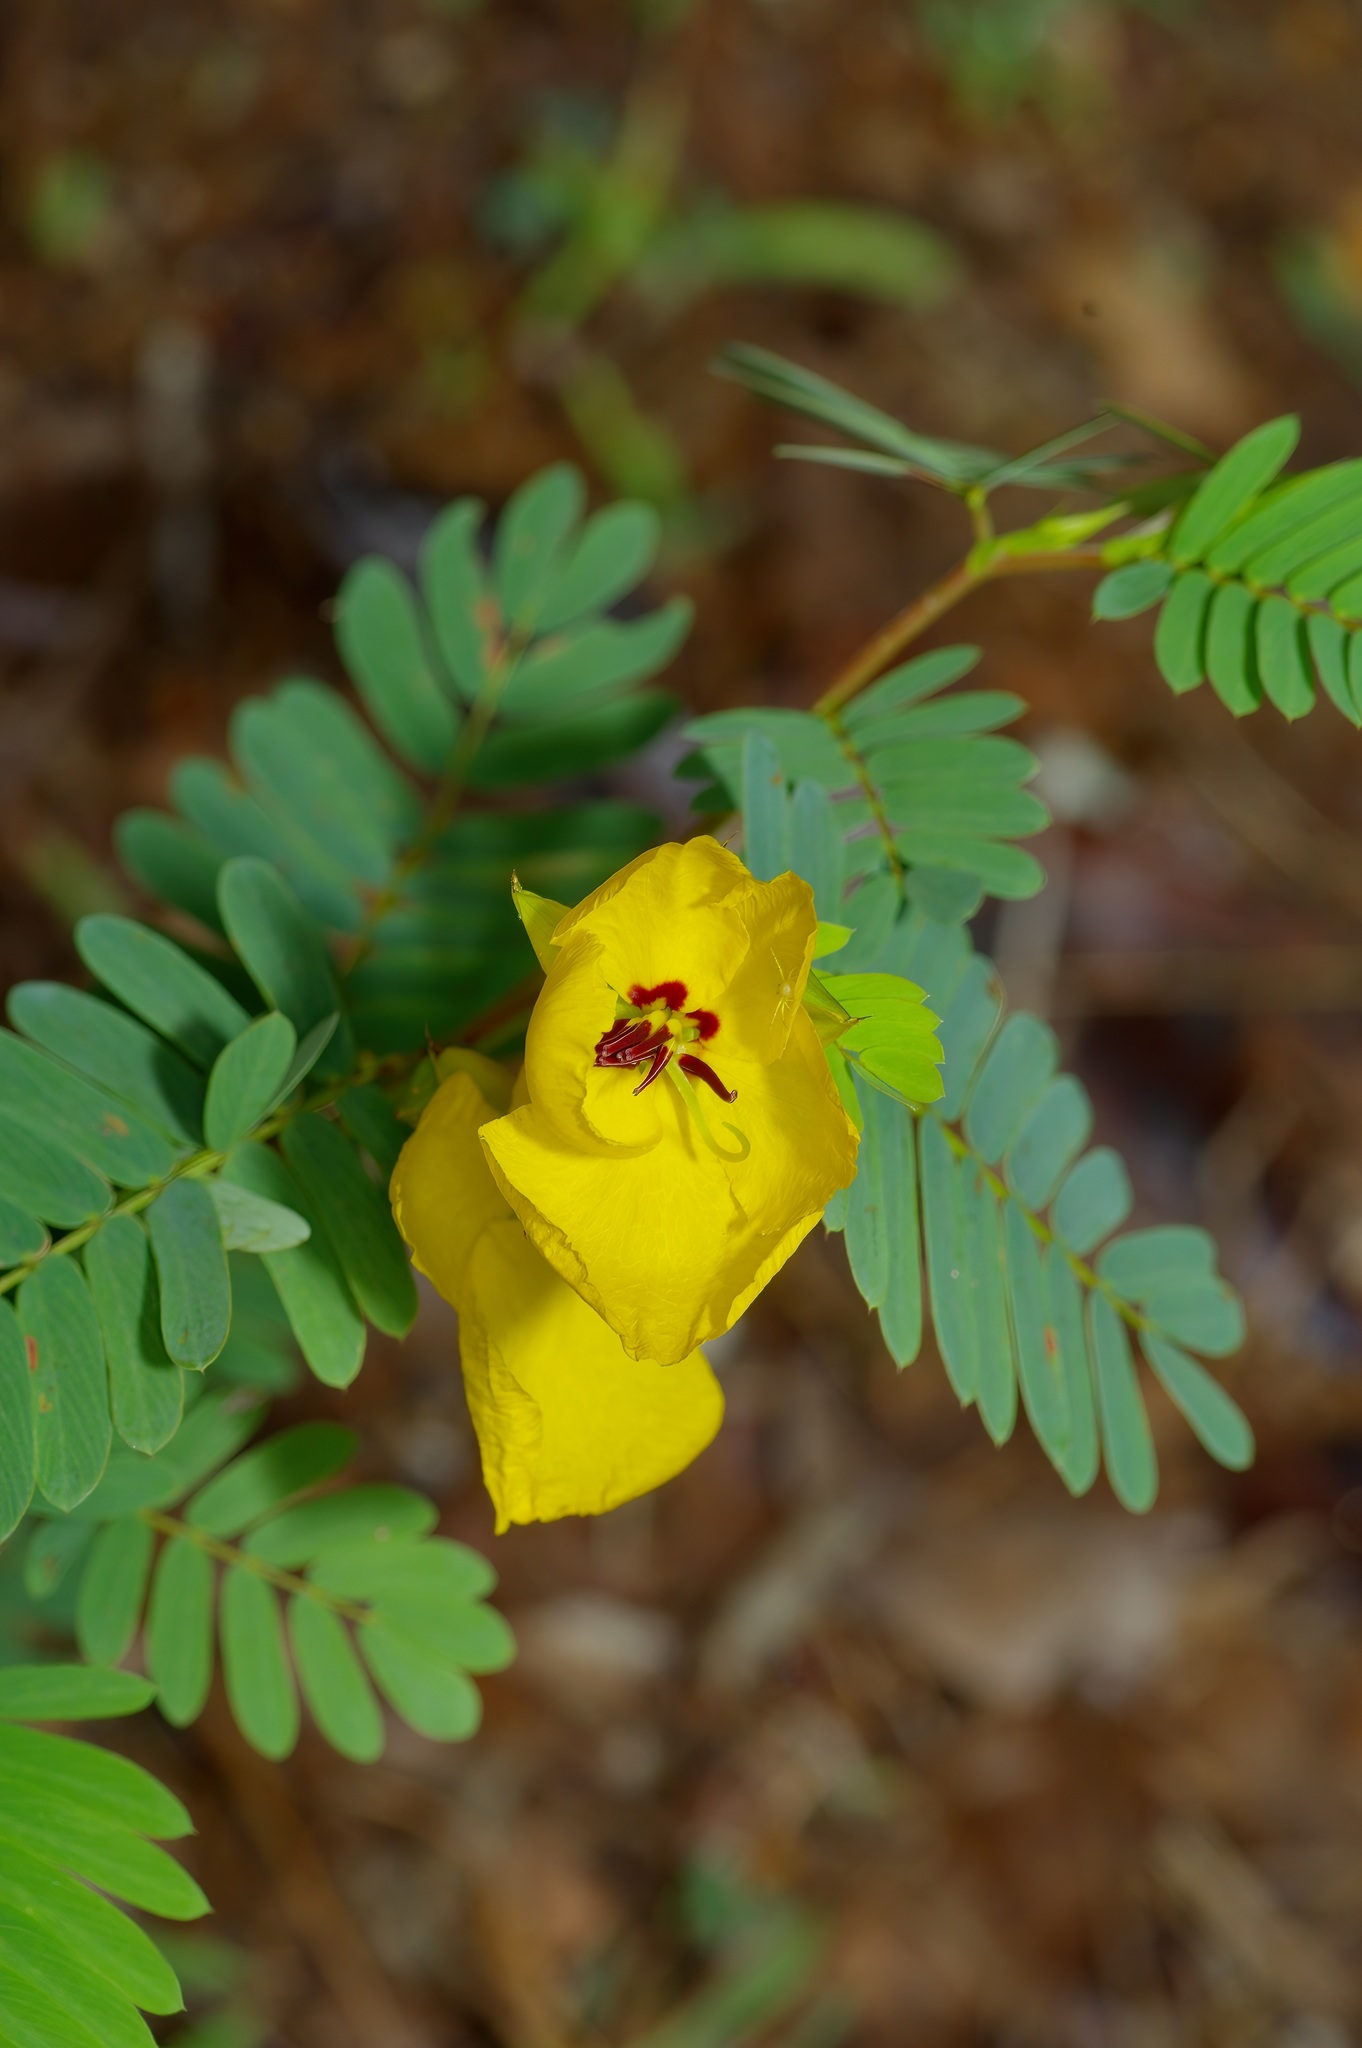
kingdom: Plantae
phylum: Tracheophyta
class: Magnoliopsida
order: Fabales
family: Fabaceae
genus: Chamaecrista
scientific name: Chamaecrista fasciculata
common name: Golden cassia
